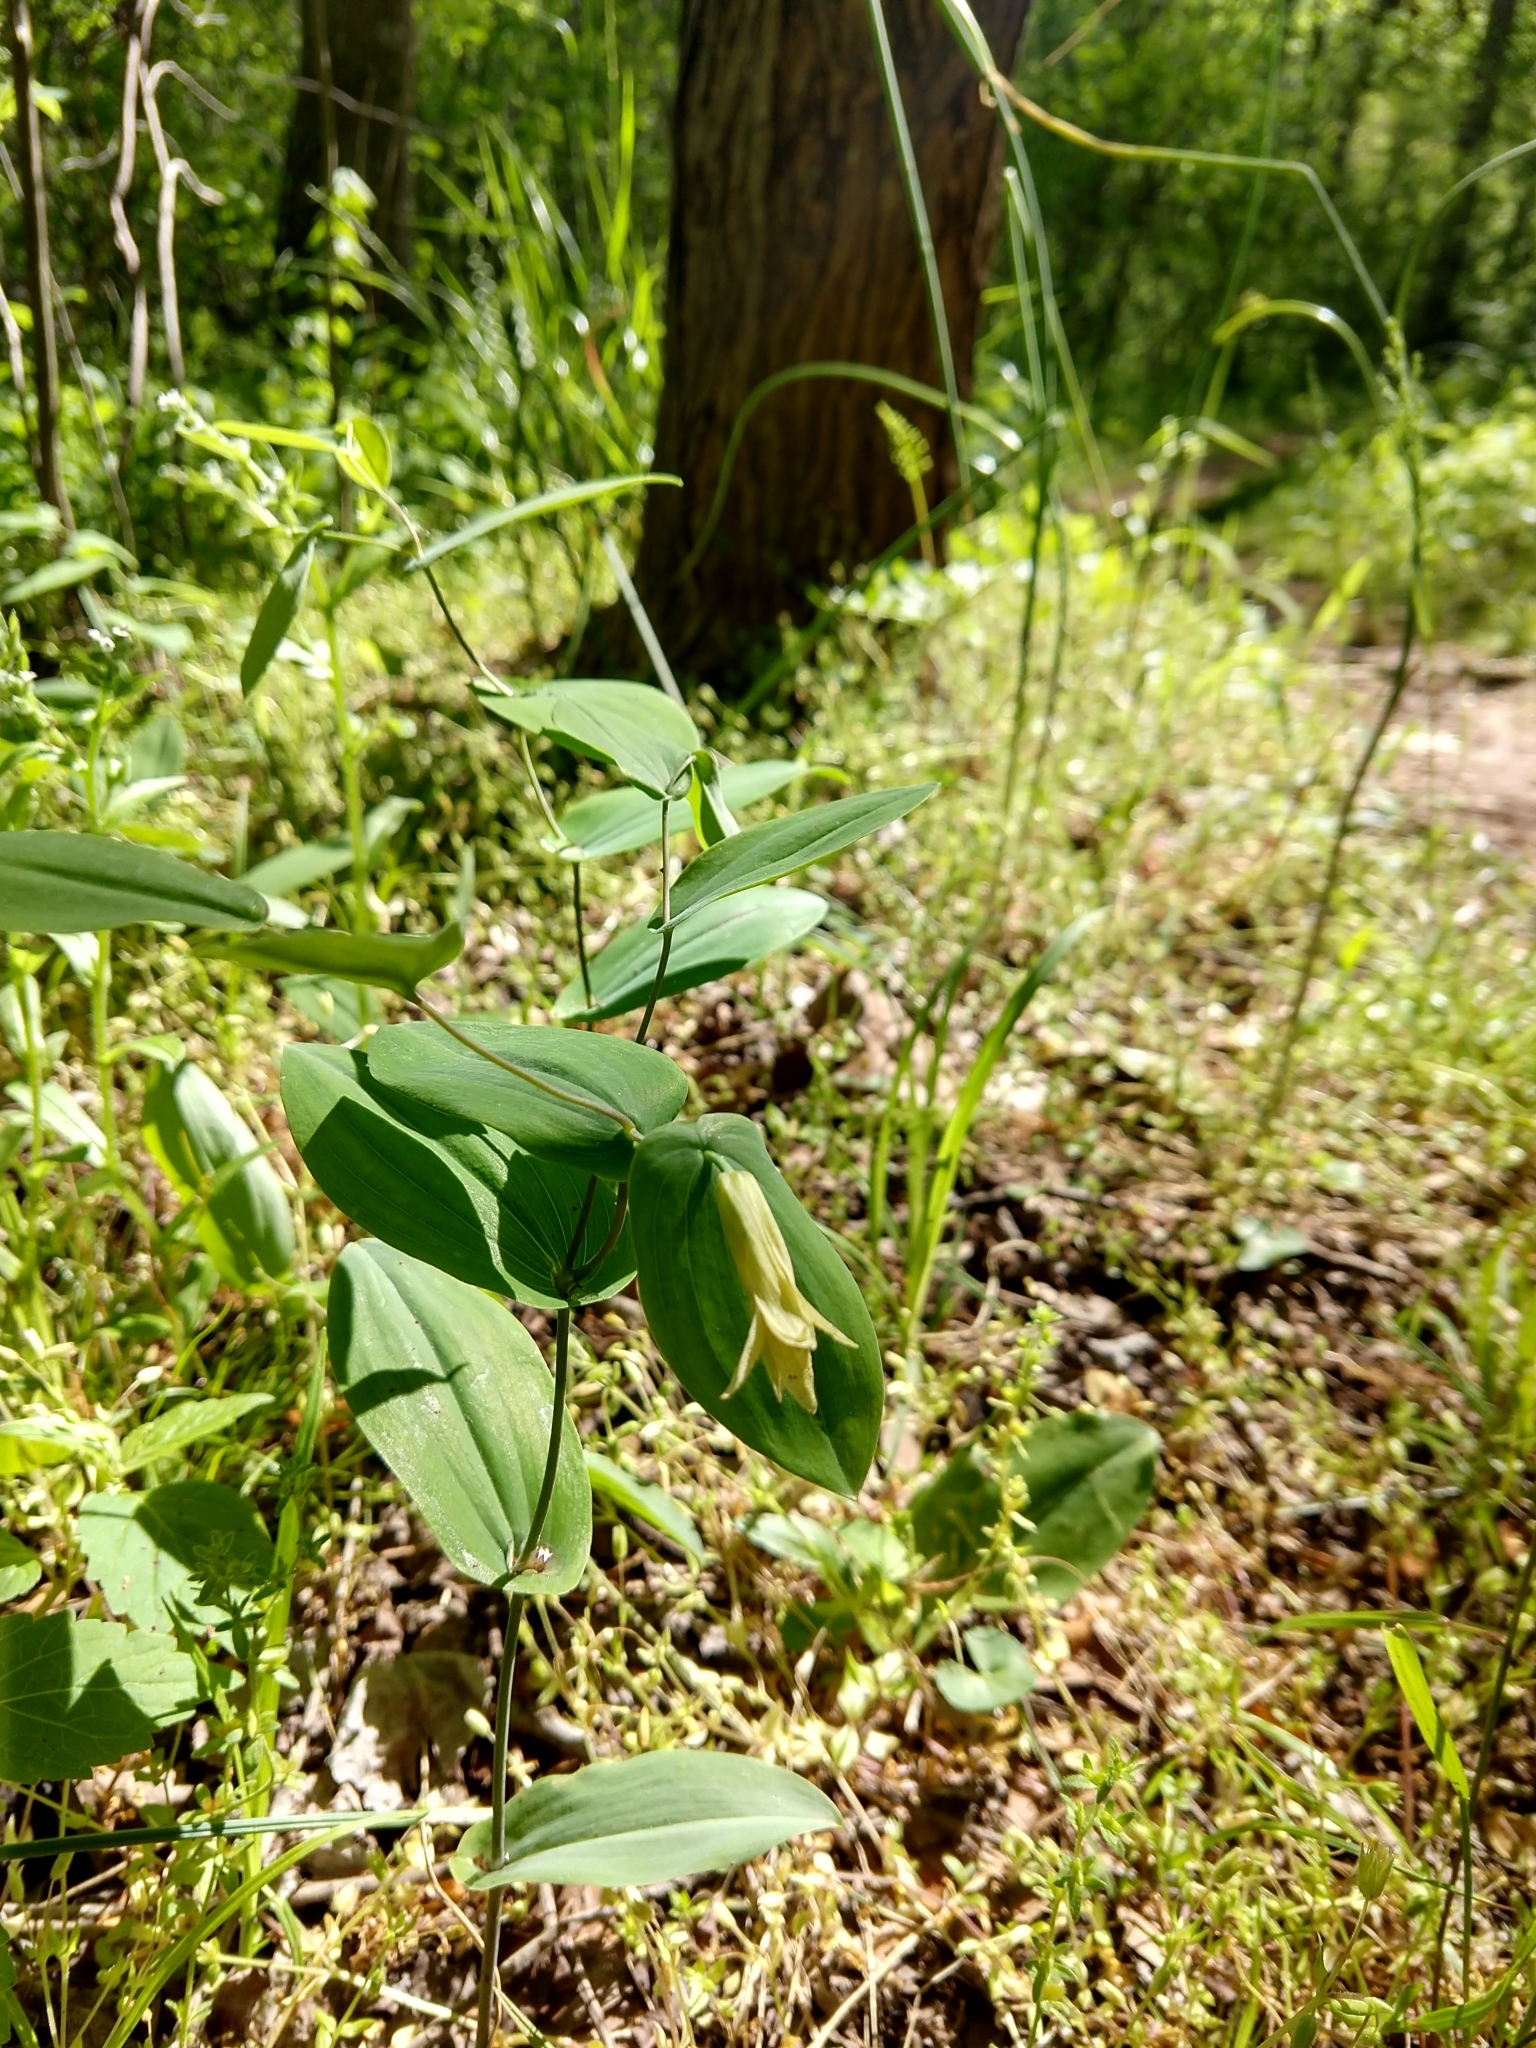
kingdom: Plantae
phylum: Tracheophyta
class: Liliopsida
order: Liliales
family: Colchicaceae
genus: Uvularia
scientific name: Uvularia perfoliata
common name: Perfoliate bellwort
